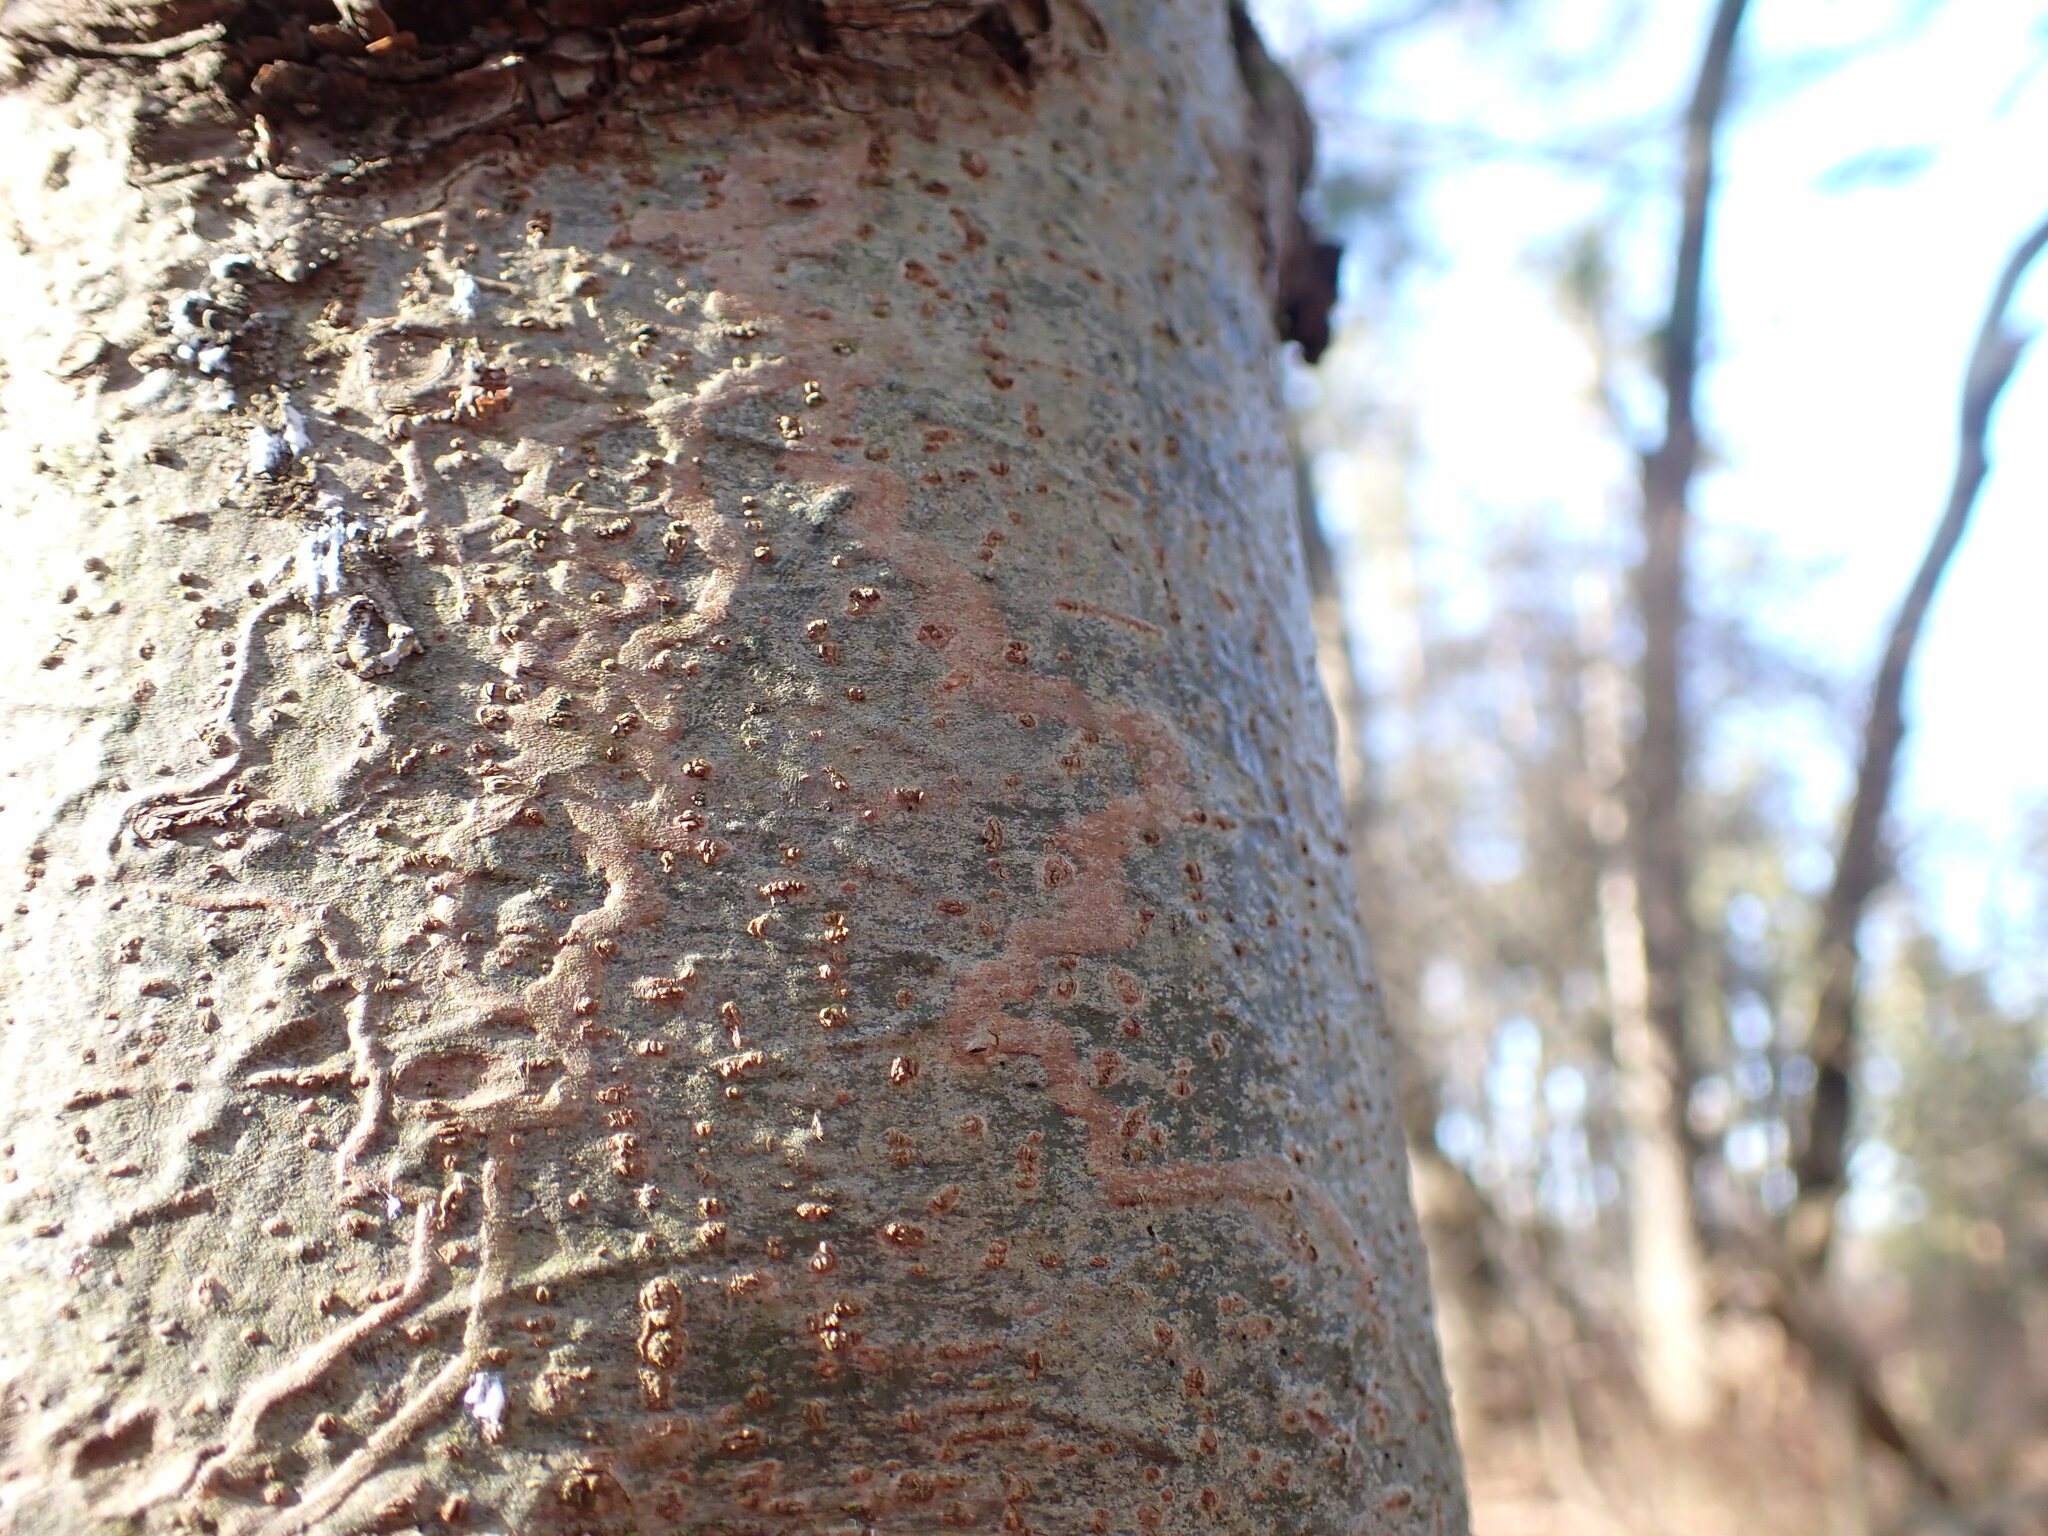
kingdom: Animalia
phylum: Arthropoda
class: Insecta
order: Lepidoptera
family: Gracillariidae
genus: Marmara
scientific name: Marmara fasciella
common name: White pine barkminer moth
